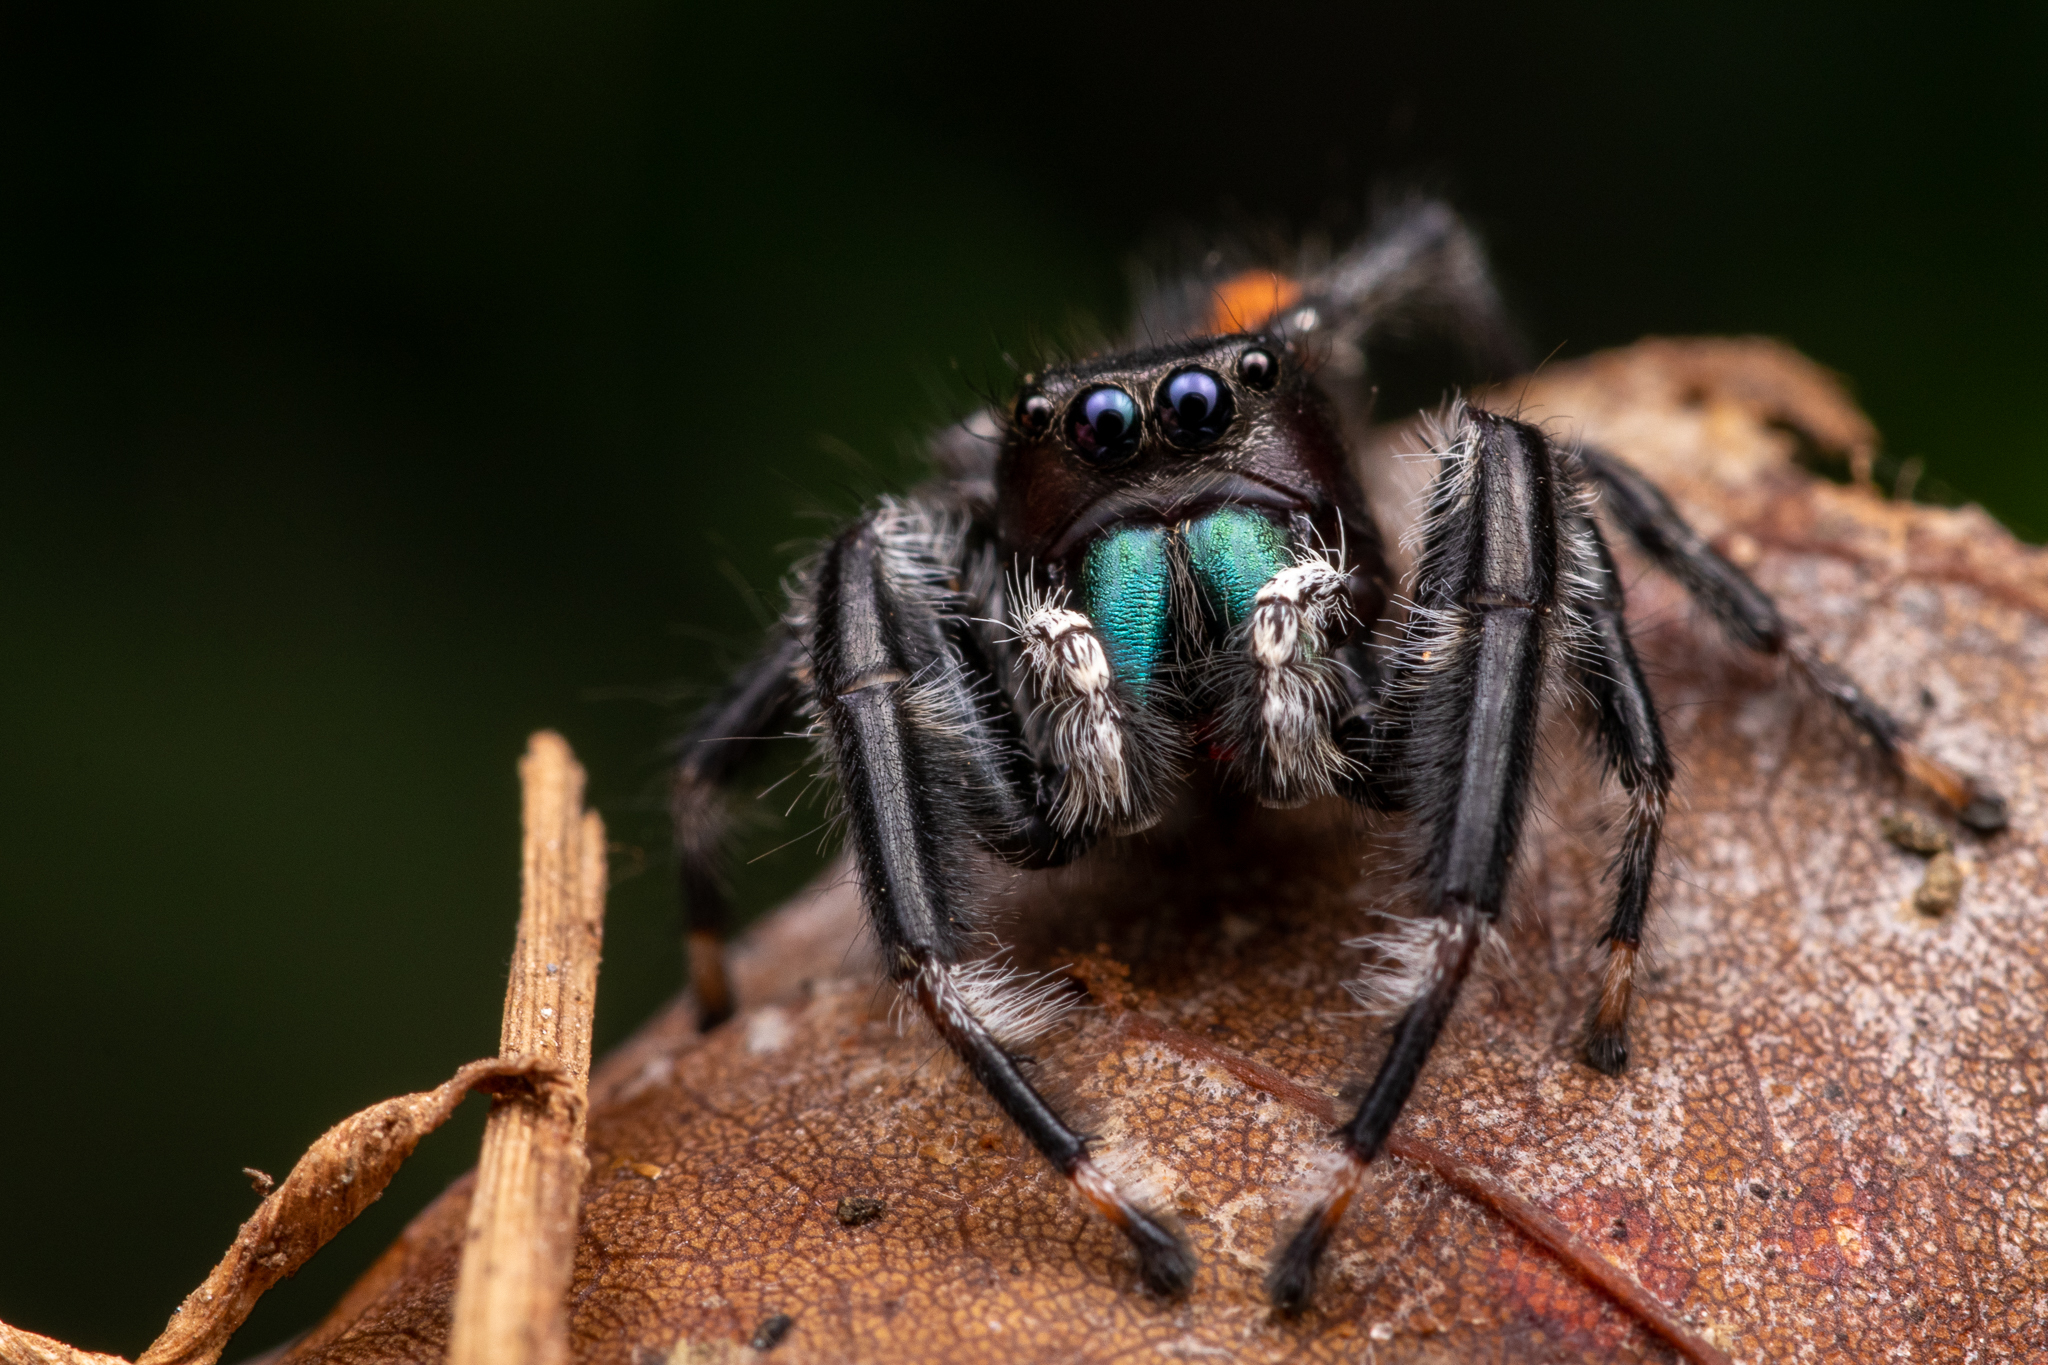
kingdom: Animalia
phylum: Arthropoda
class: Arachnida
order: Araneae
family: Salticidae
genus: Phidippus
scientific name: Phidippus clarus
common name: Brilliant jumping spider
